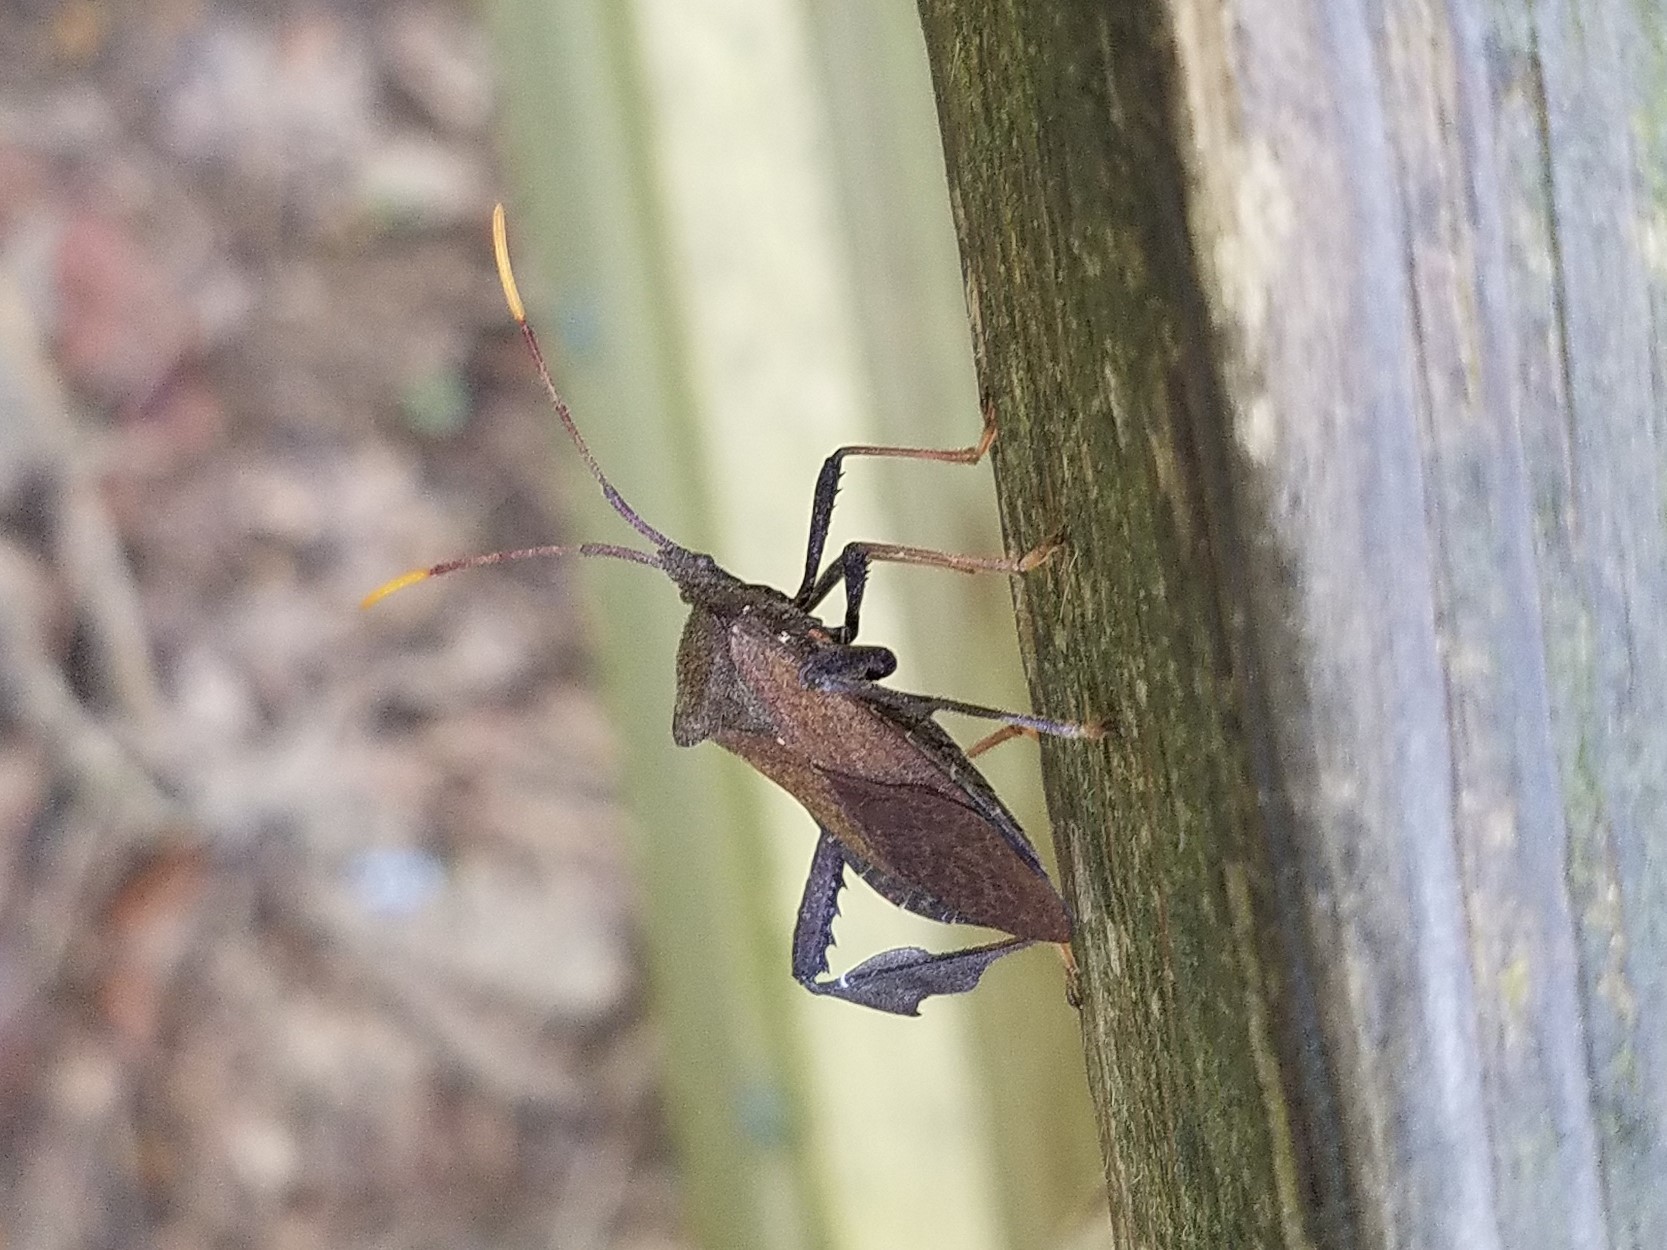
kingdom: Animalia
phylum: Arthropoda
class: Insecta
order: Hemiptera
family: Coreidae
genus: Acanthocephala
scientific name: Acanthocephala terminalis
